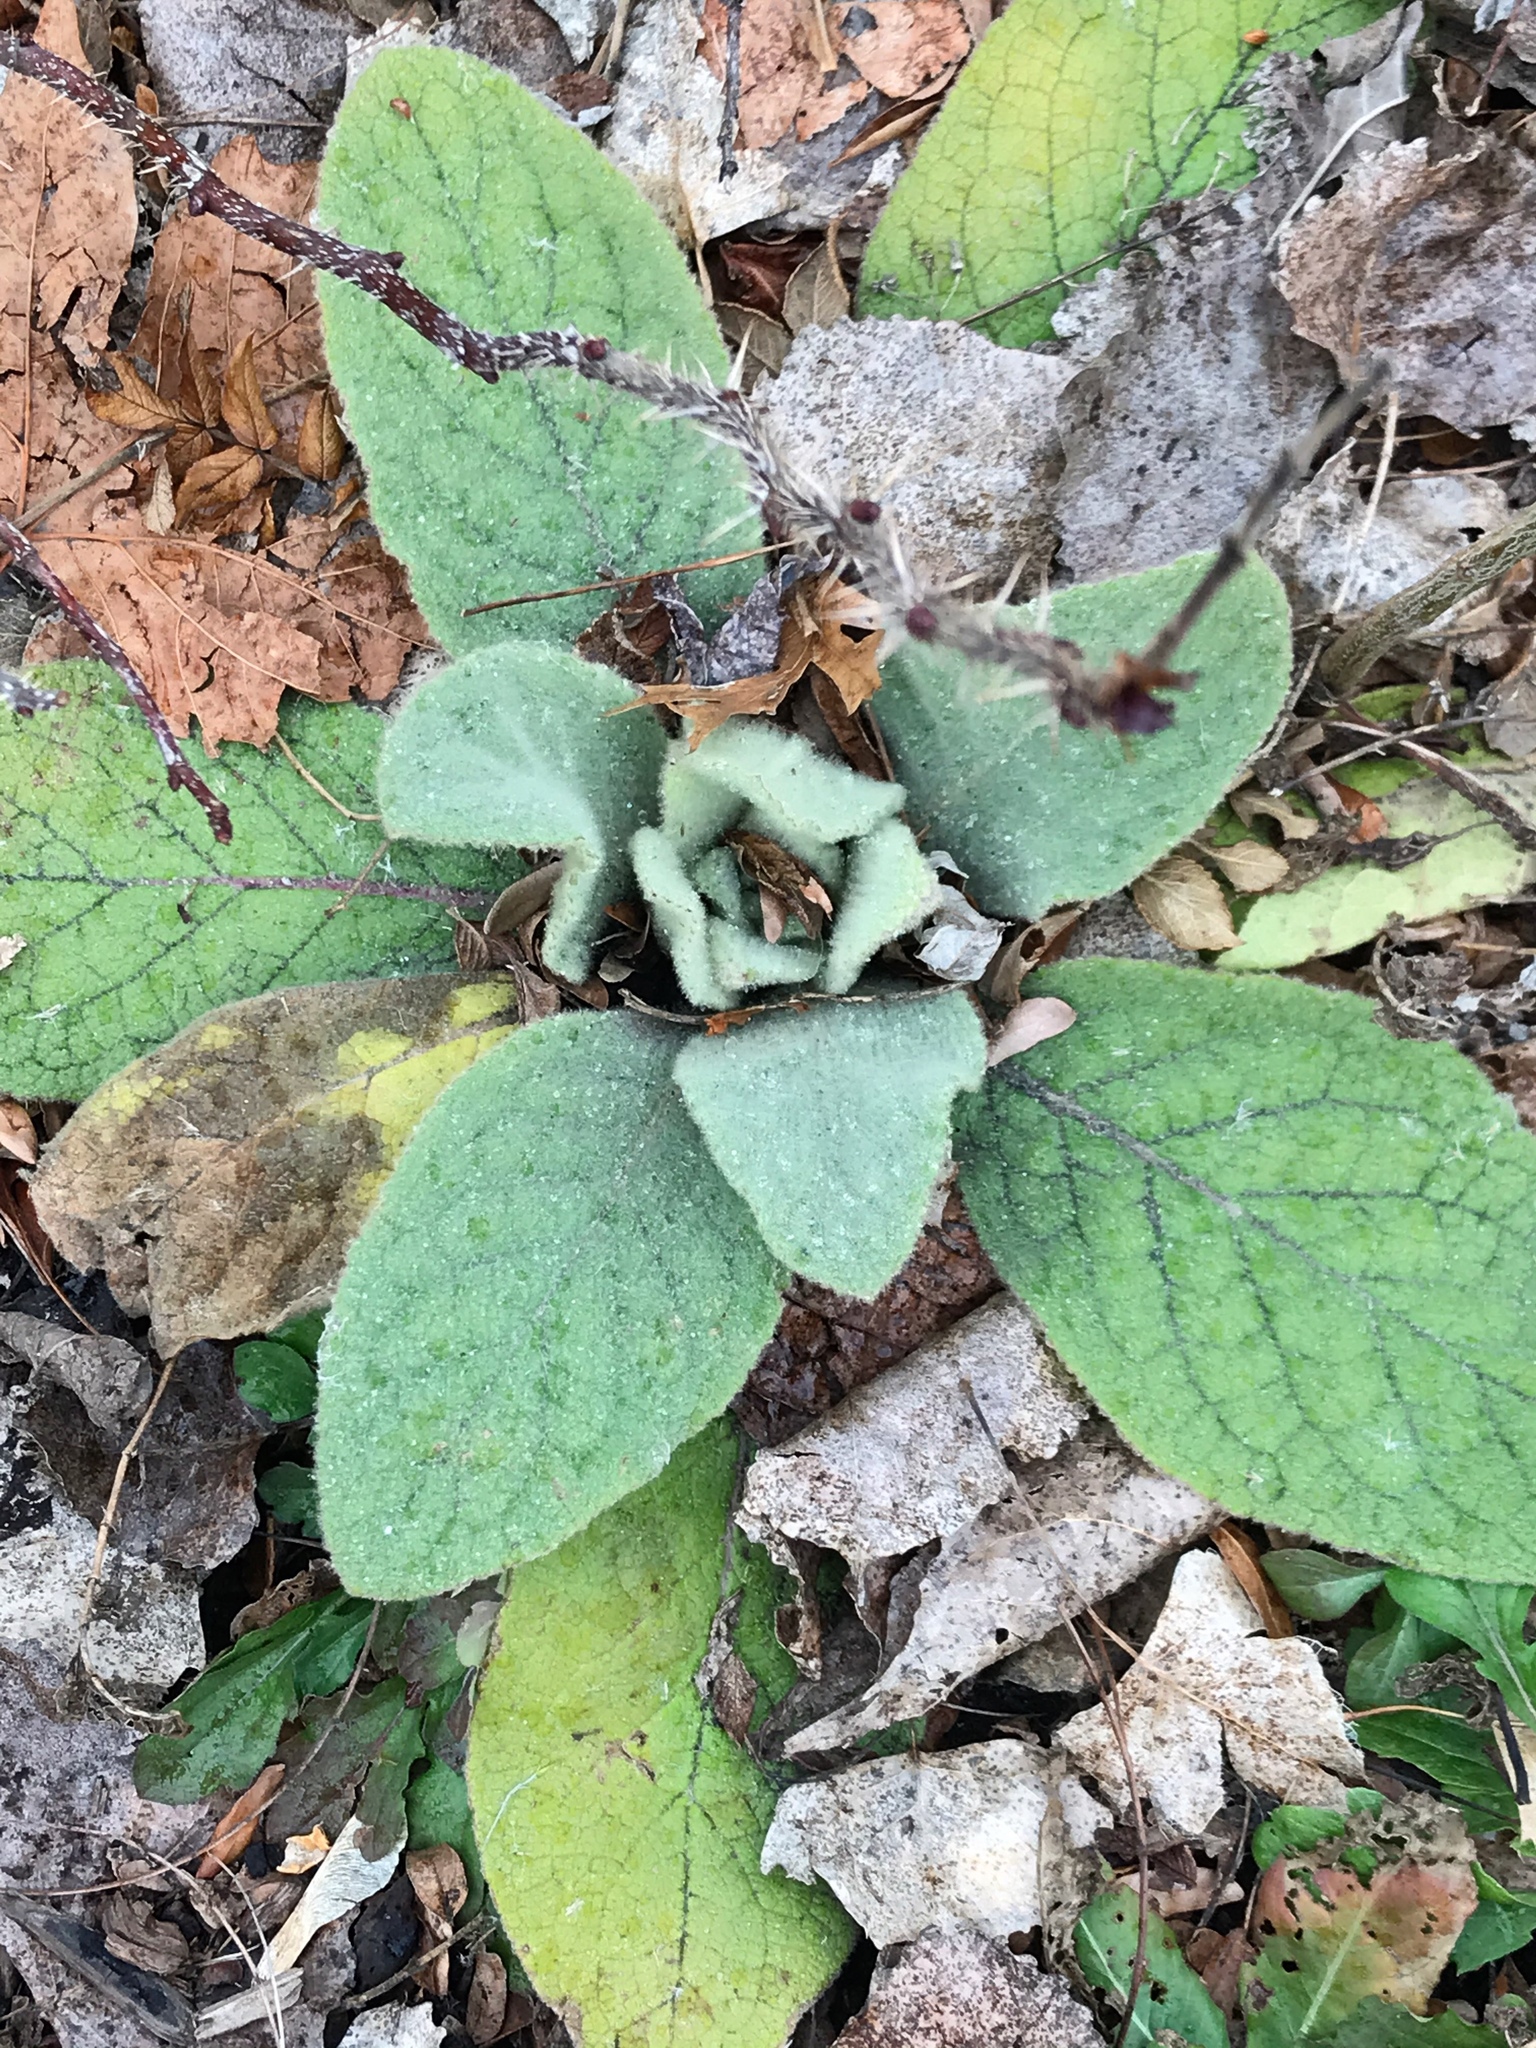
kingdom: Plantae
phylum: Tracheophyta
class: Magnoliopsida
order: Lamiales
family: Scrophulariaceae
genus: Verbascum
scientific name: Verbascum thapsus
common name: Common mullein
